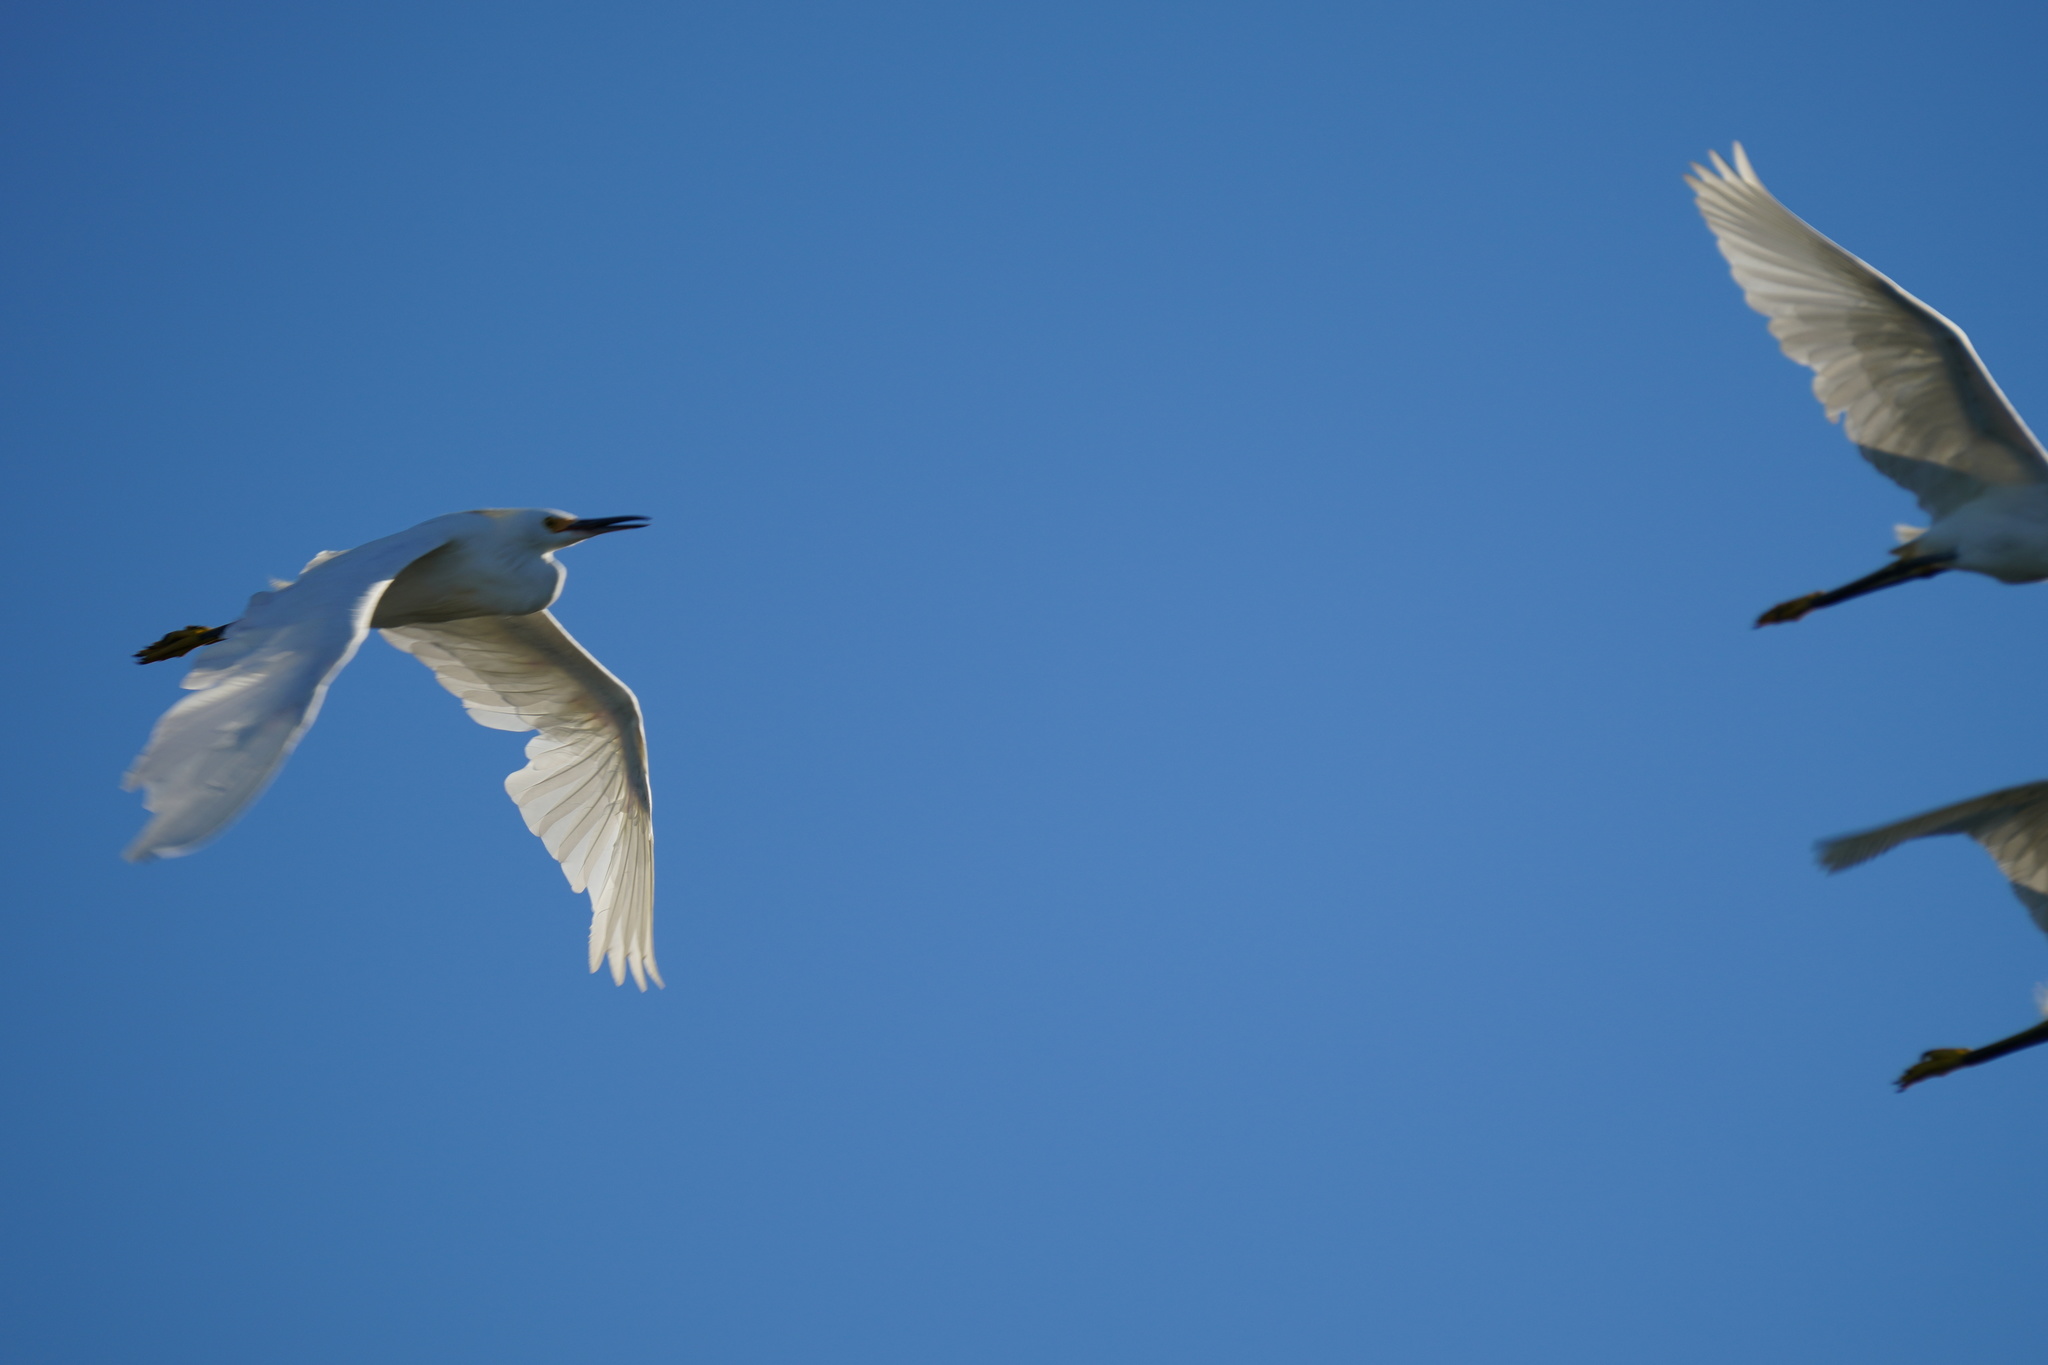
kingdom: Animalia
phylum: Chordata
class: Aves
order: Pelecaniformes
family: Ardeidae
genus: Egretta
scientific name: Egretta thula
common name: Snowy egret
